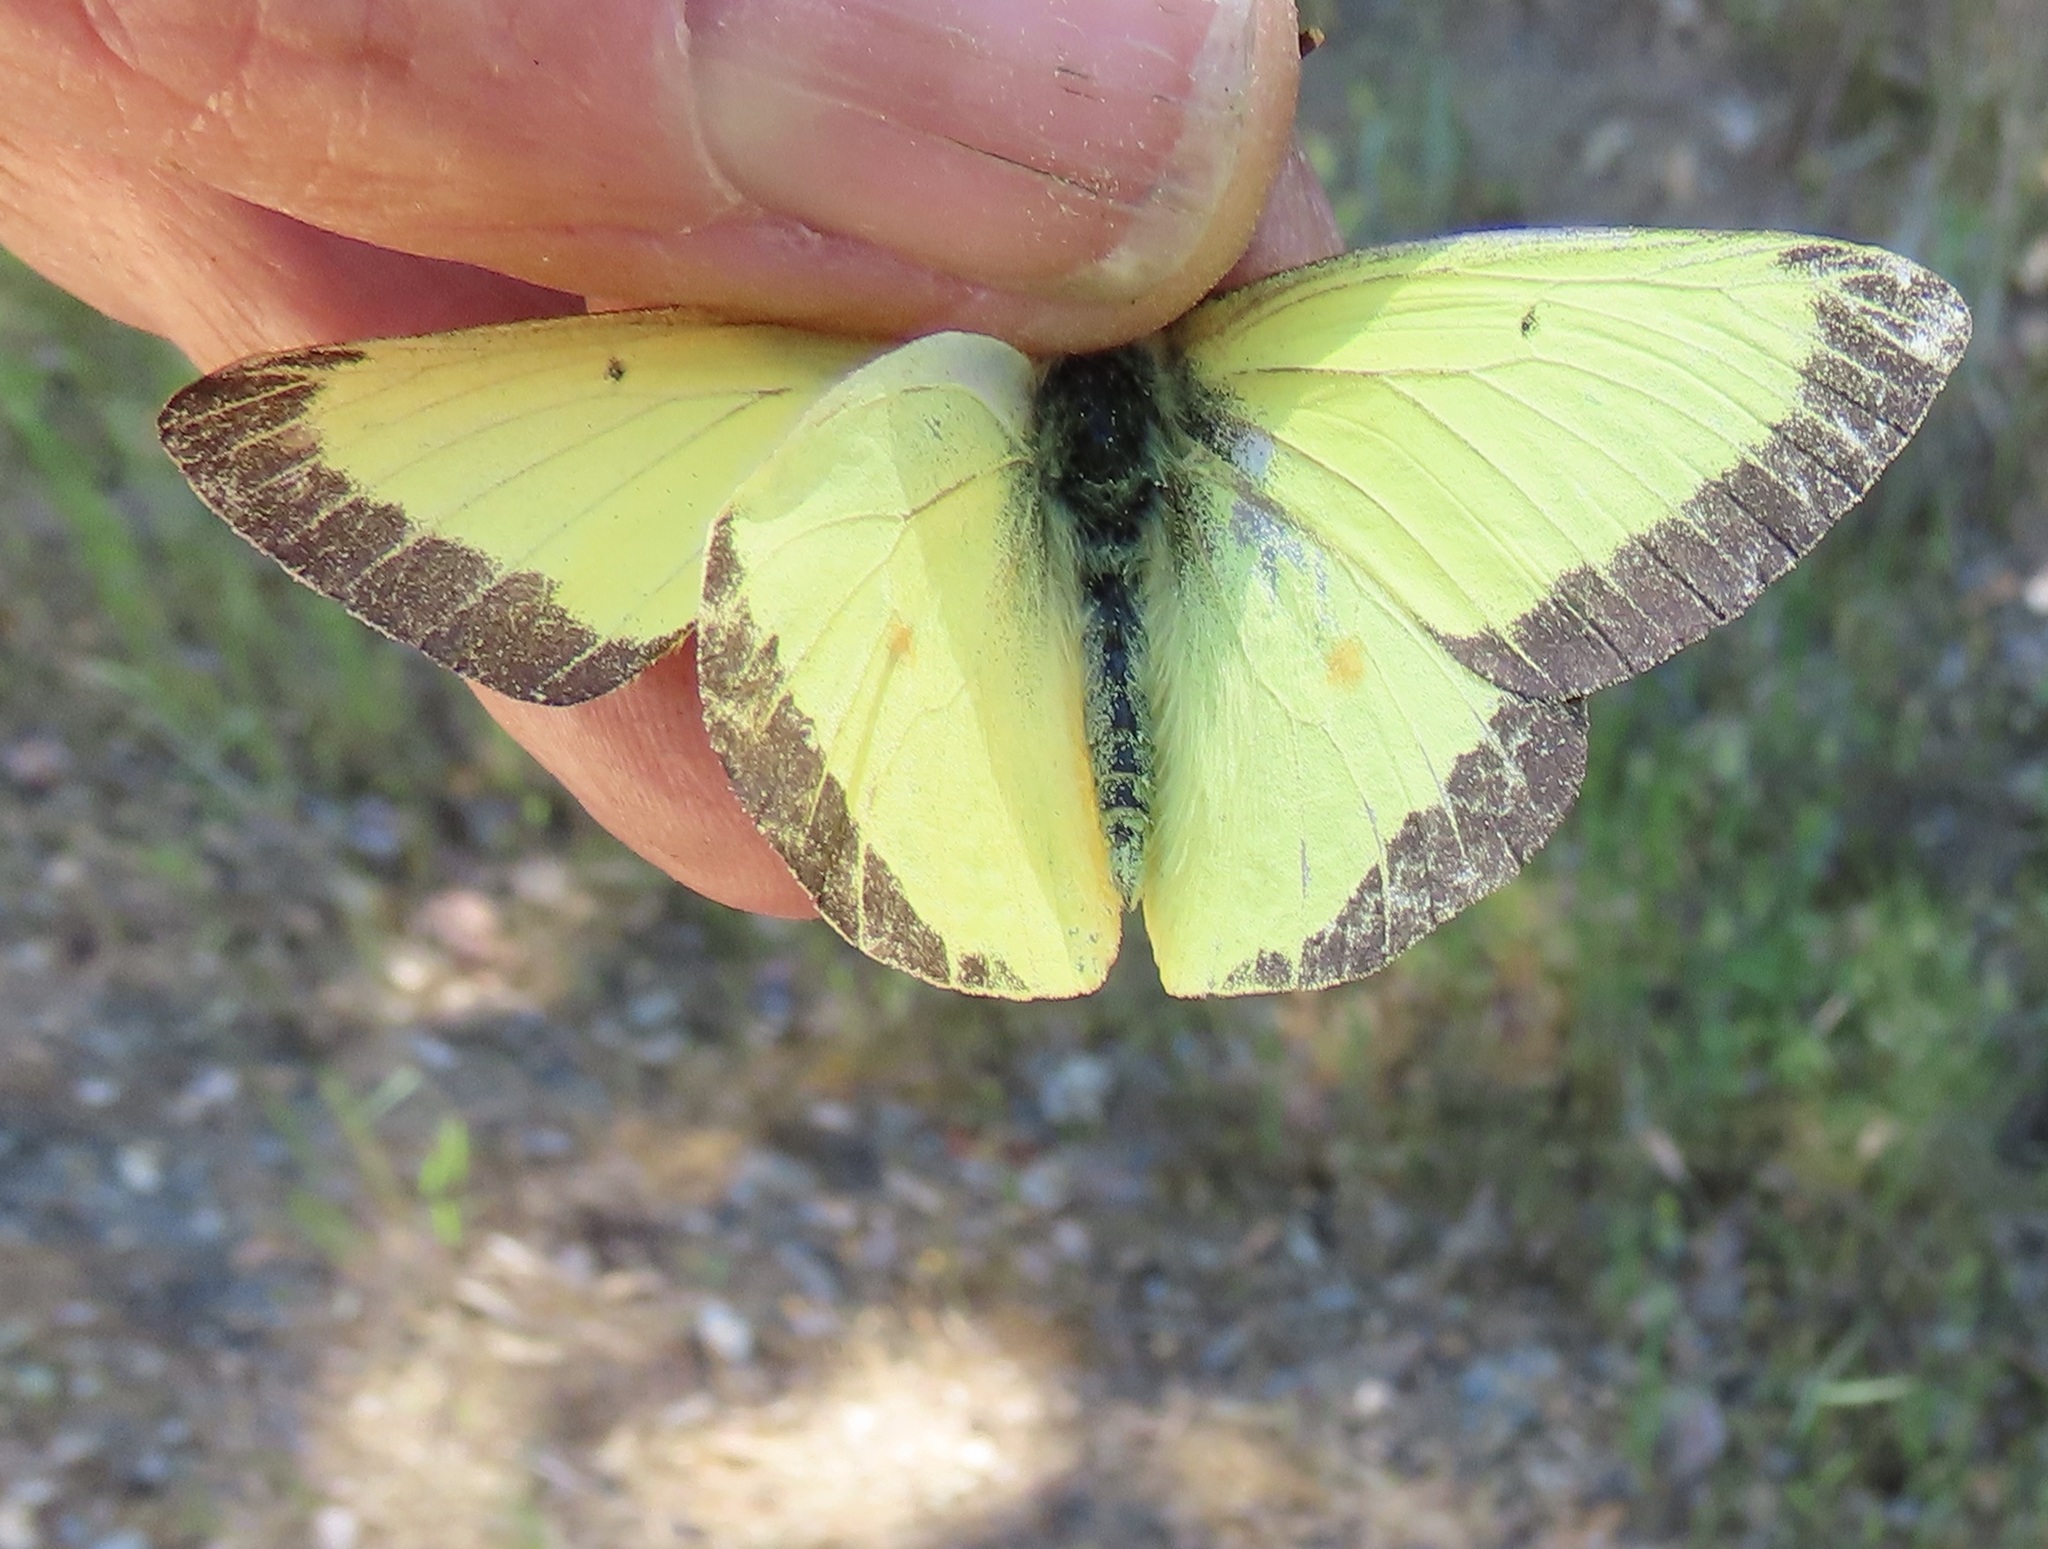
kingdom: Animalia
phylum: Arthropoda
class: Insecta
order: Lepidoptera
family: Pieridae
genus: Colias
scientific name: Colias occidentalis
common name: Western sulphur
